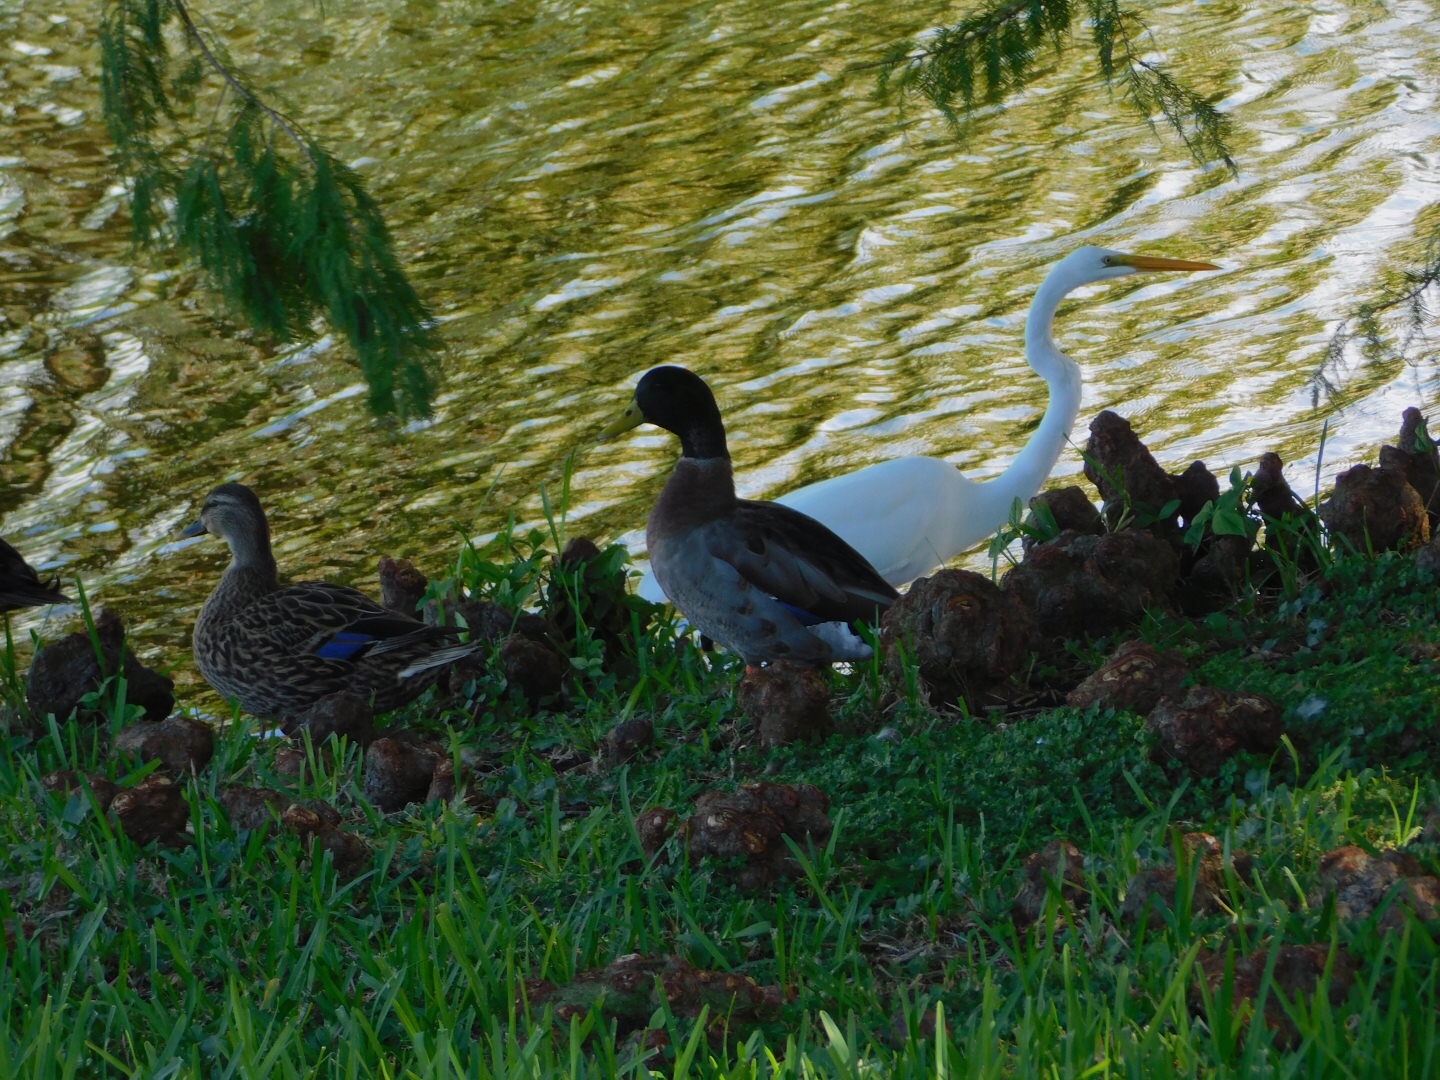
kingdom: Animalia
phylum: Chordata
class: Aves
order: Anseriformes
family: Anatidae
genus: Anas
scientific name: Anas
